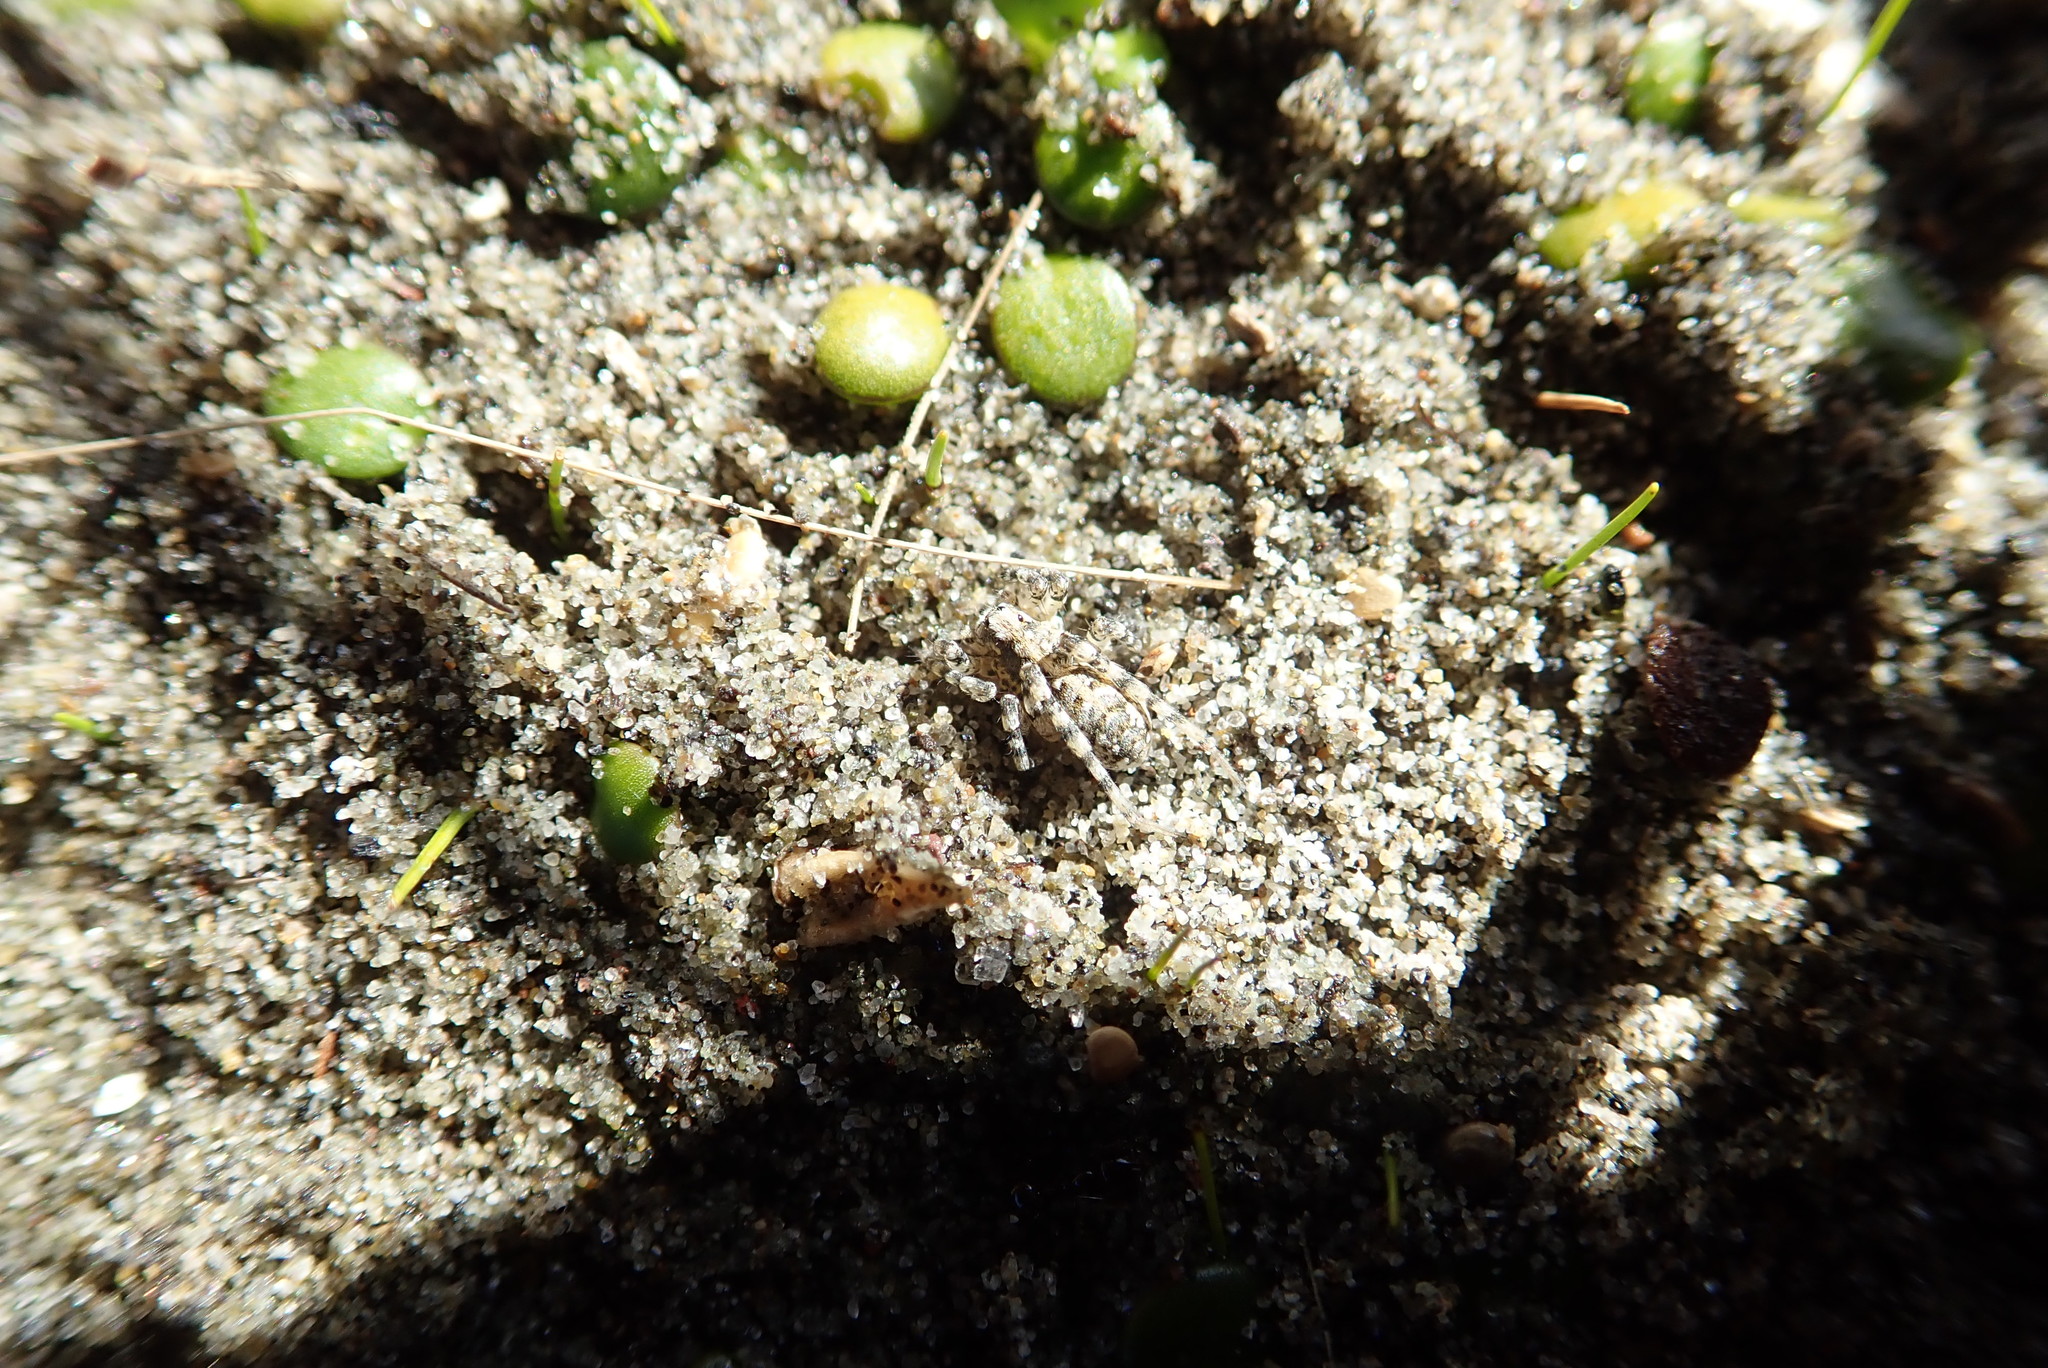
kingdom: Animalia
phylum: Arthropoda
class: Arachnida
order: Araneae
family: Lycosidae
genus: Anoteropsis
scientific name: Anoteropsis litoralis
